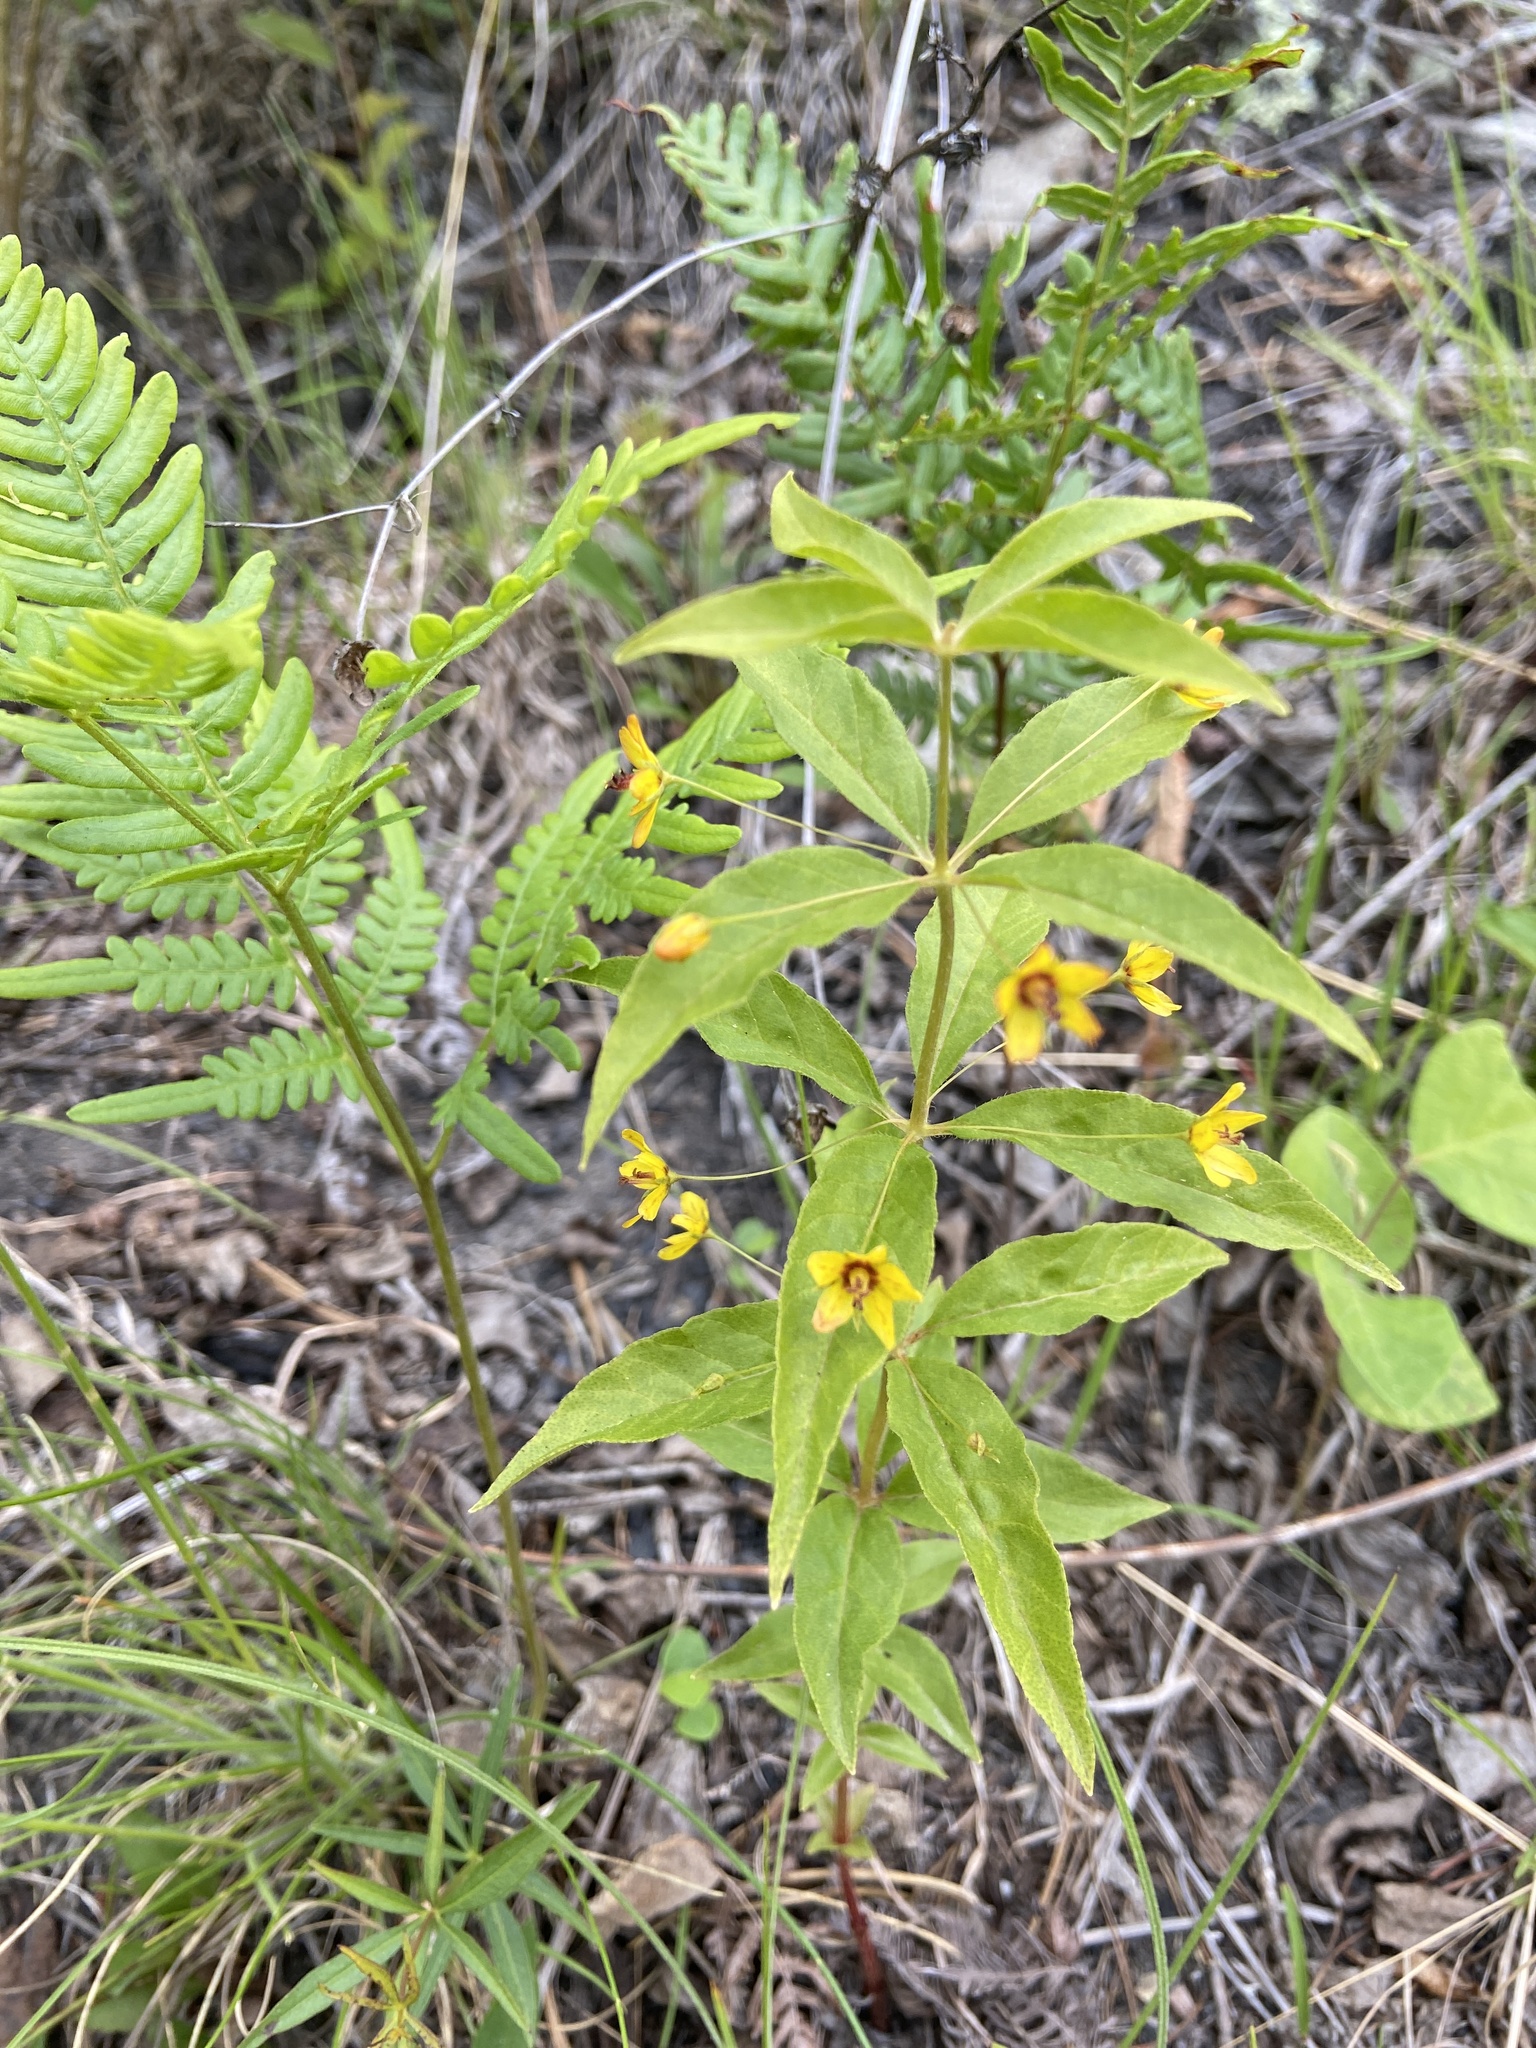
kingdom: Plantae
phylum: Tracheophyta
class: Magnoliopsida
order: Ericales
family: Primulaceae
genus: Lysimachia
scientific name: Lysimachia quadrifolia
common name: Whorled loosestrife
